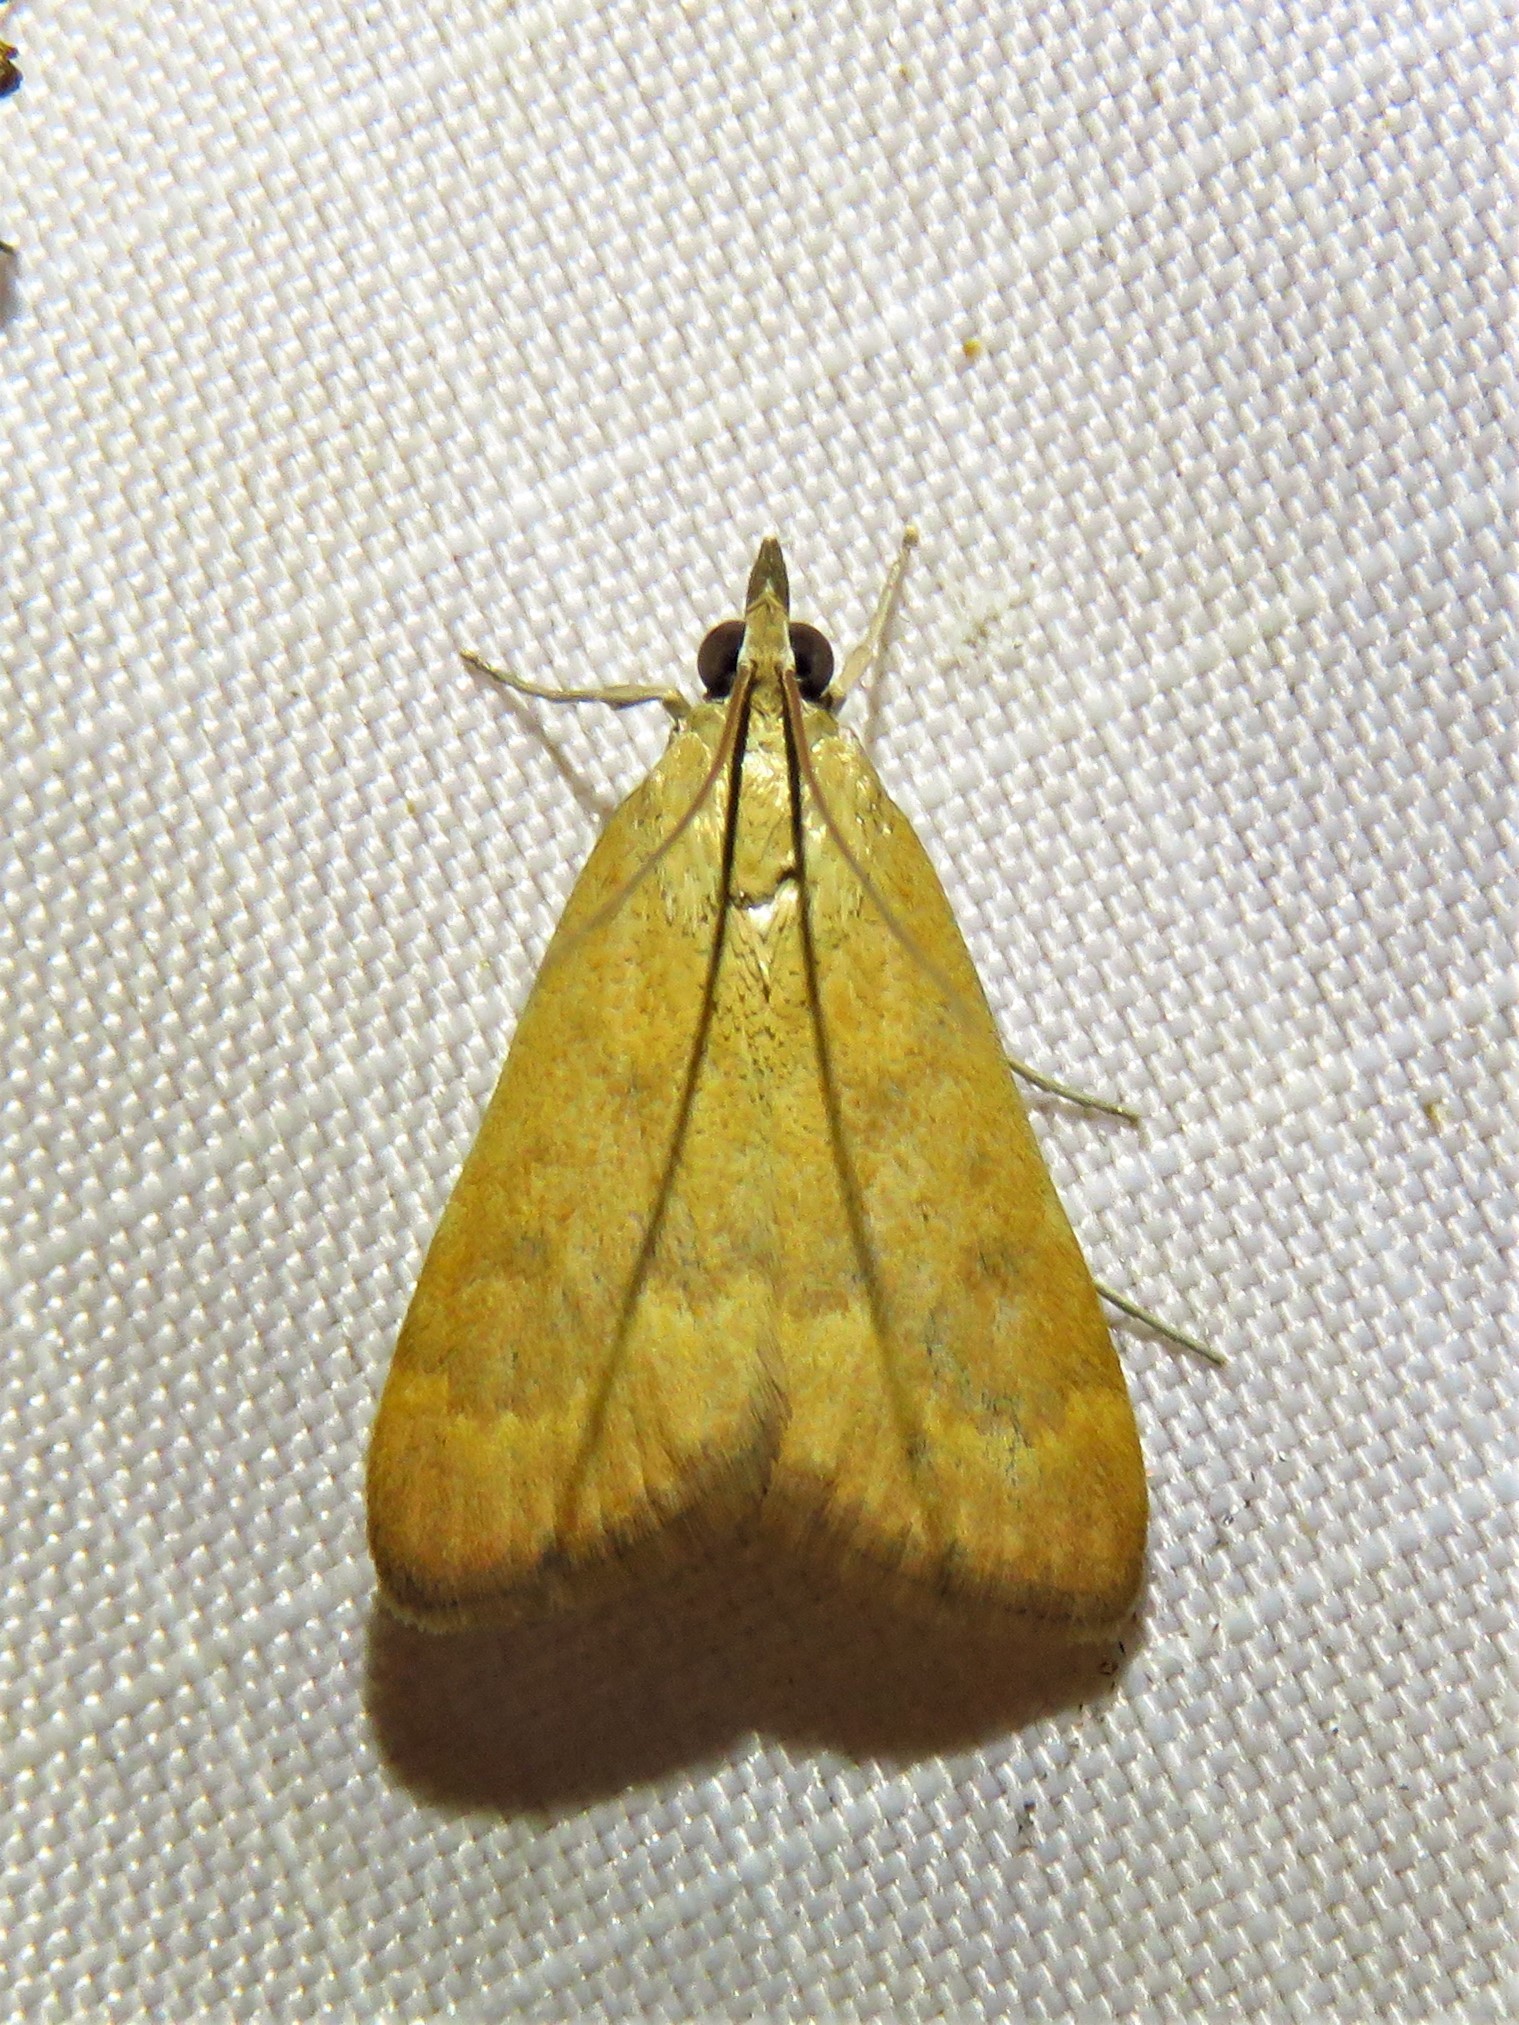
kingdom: Animalia
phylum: Arthropoda
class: Insecta
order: Lepidoptera
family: Crambidae
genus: Achyra
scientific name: Achyra rantalis
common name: Garden webworm
